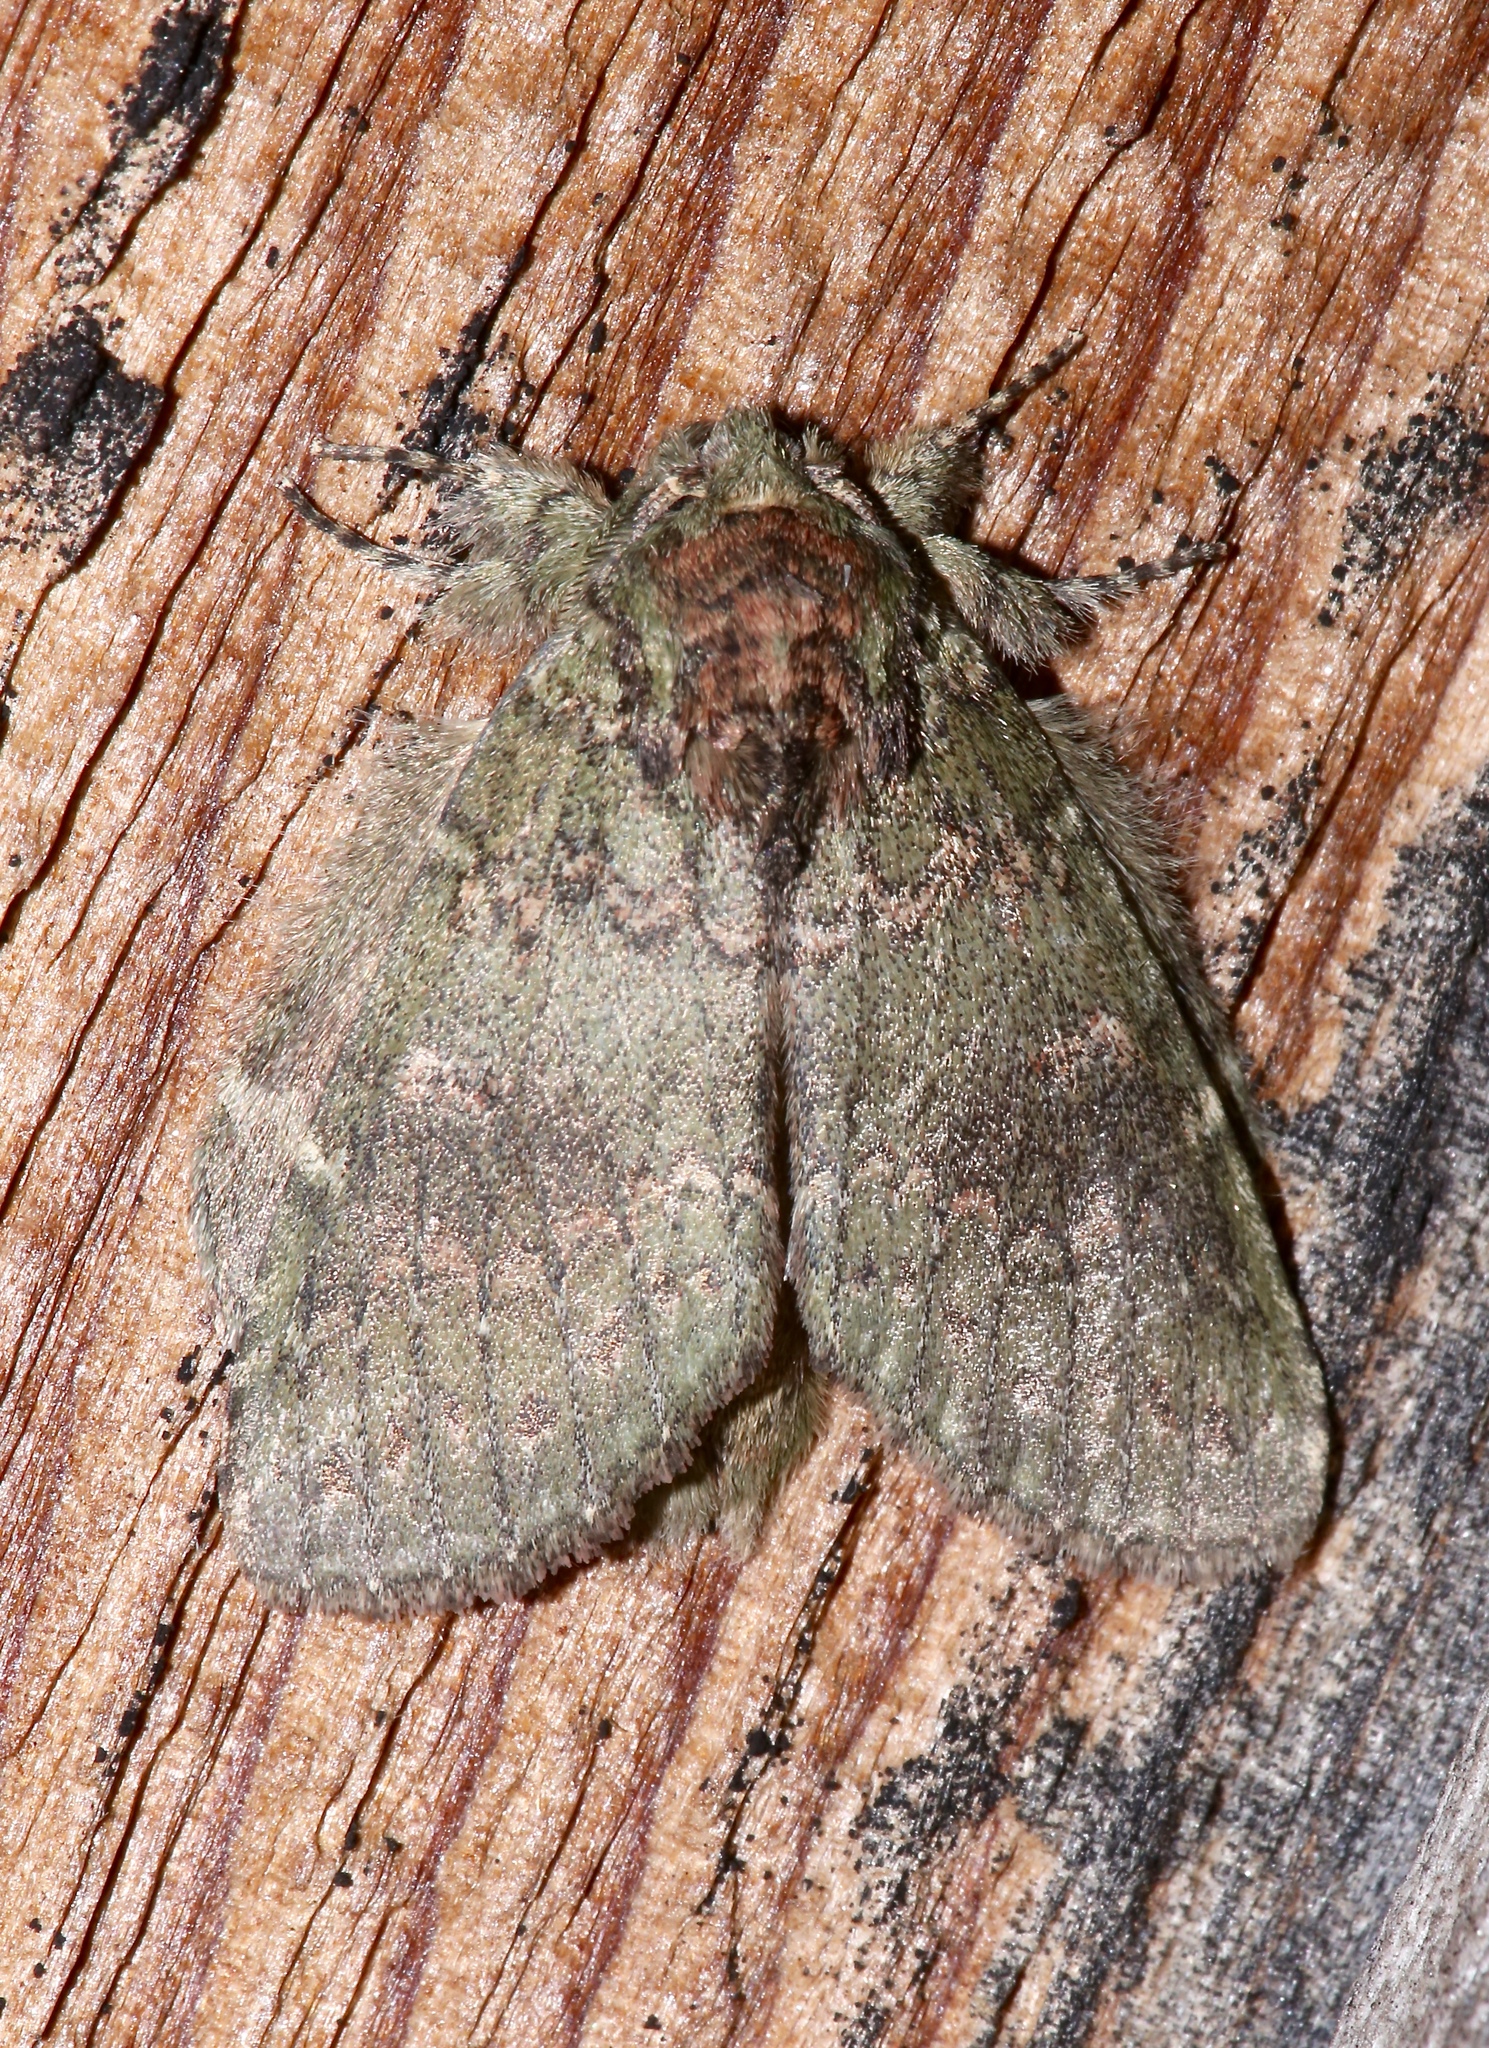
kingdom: Animalia
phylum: Arthropoda
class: Insecta
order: Lepidoptera
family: Notodontidae
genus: Disphragis
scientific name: Disphragis Cecrita biundata
